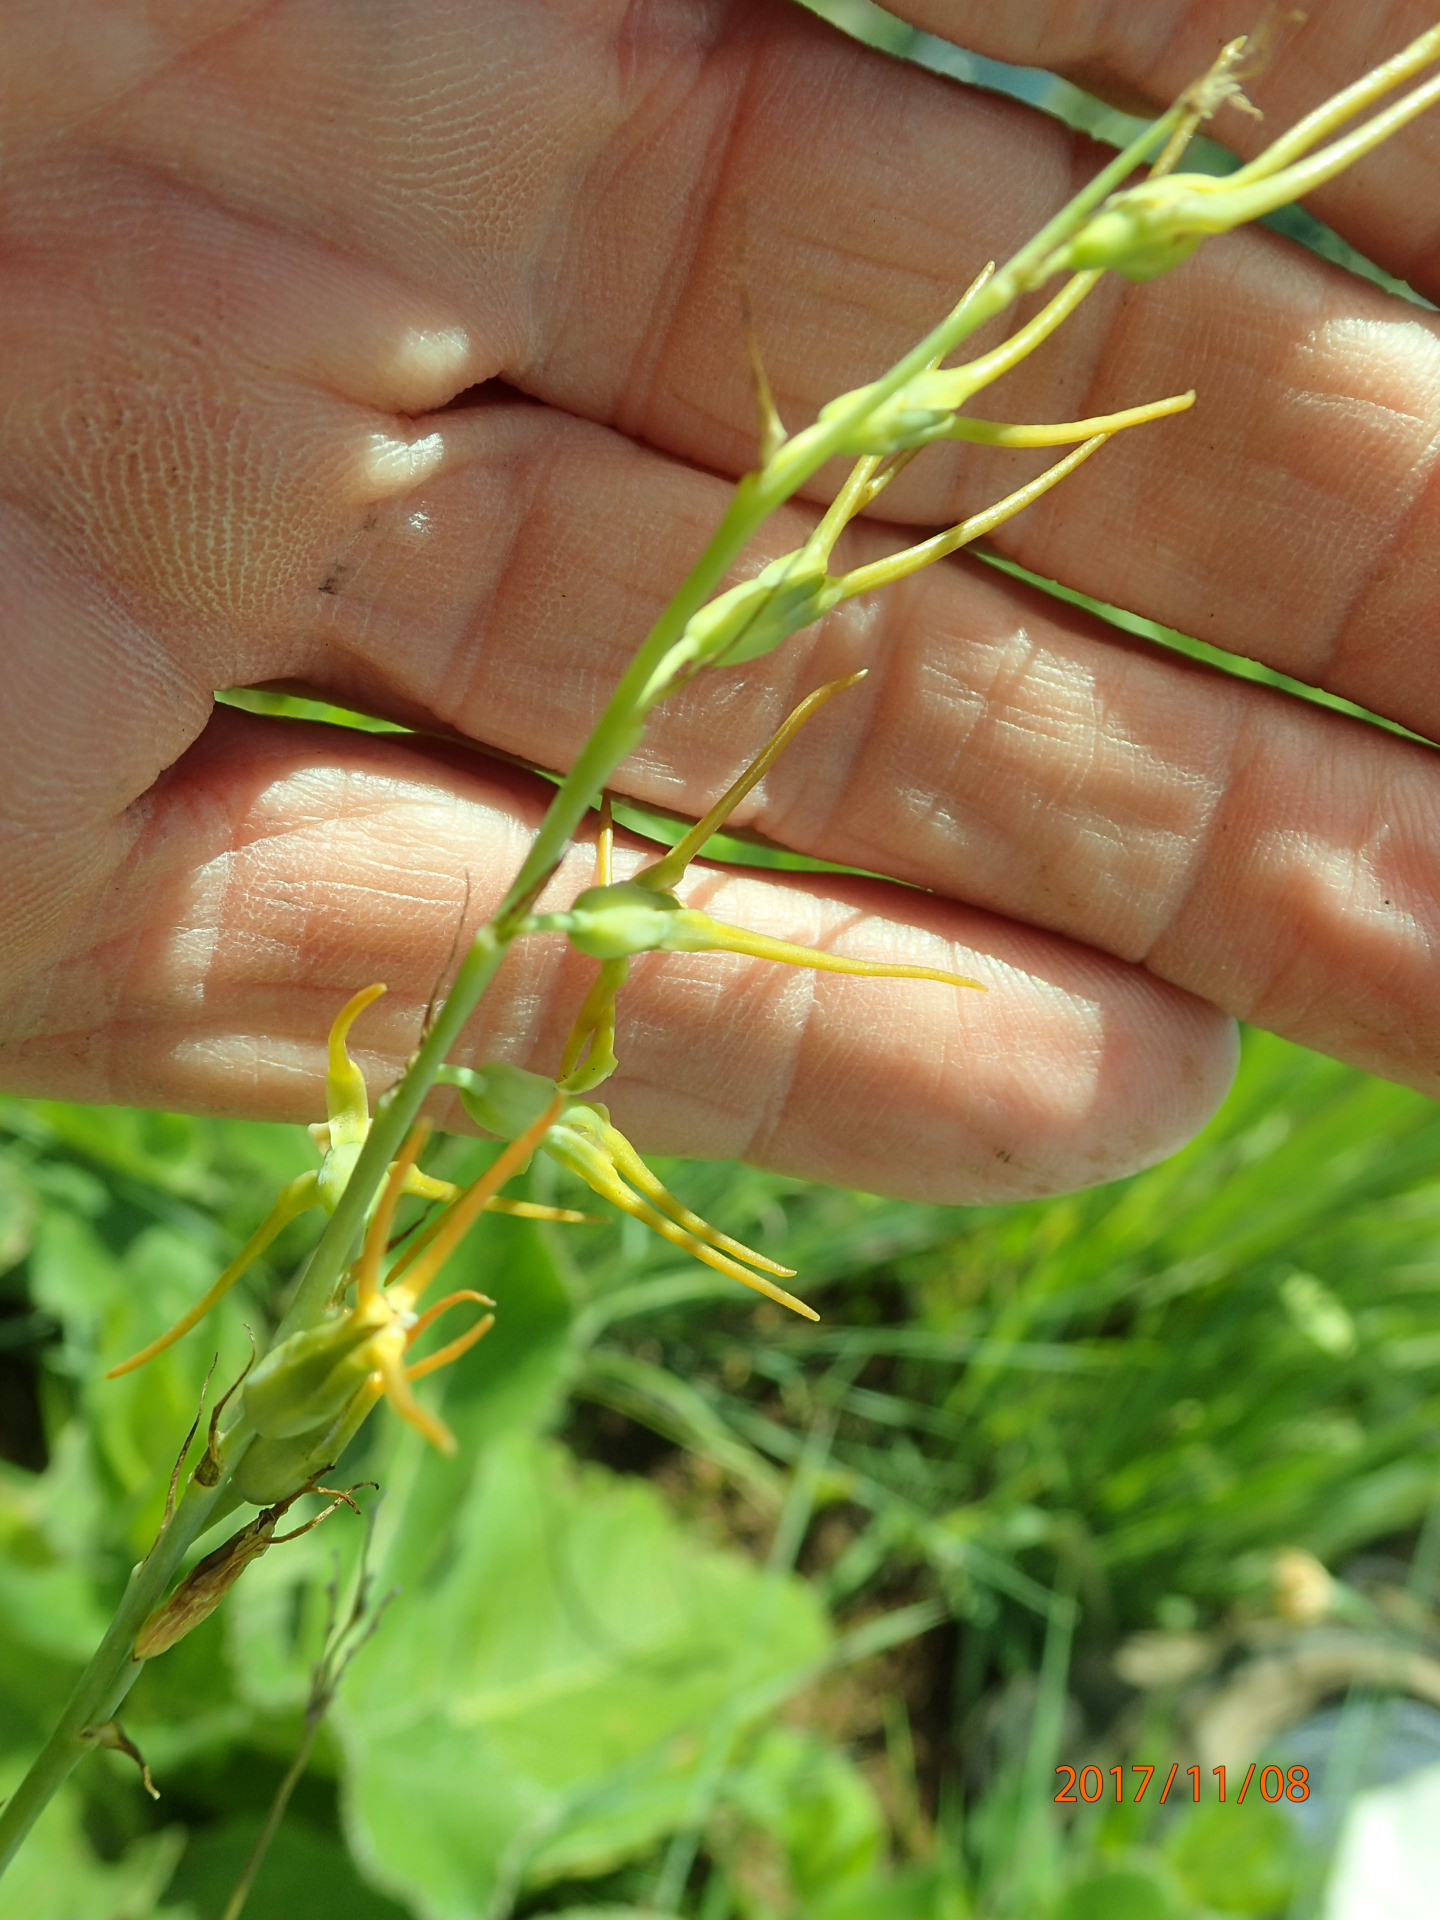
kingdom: Plantae
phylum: Tracheophyta
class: Liliopsida
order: Asparagales
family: Asparagaceae
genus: Dipcadi
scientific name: Dipcadi viride
